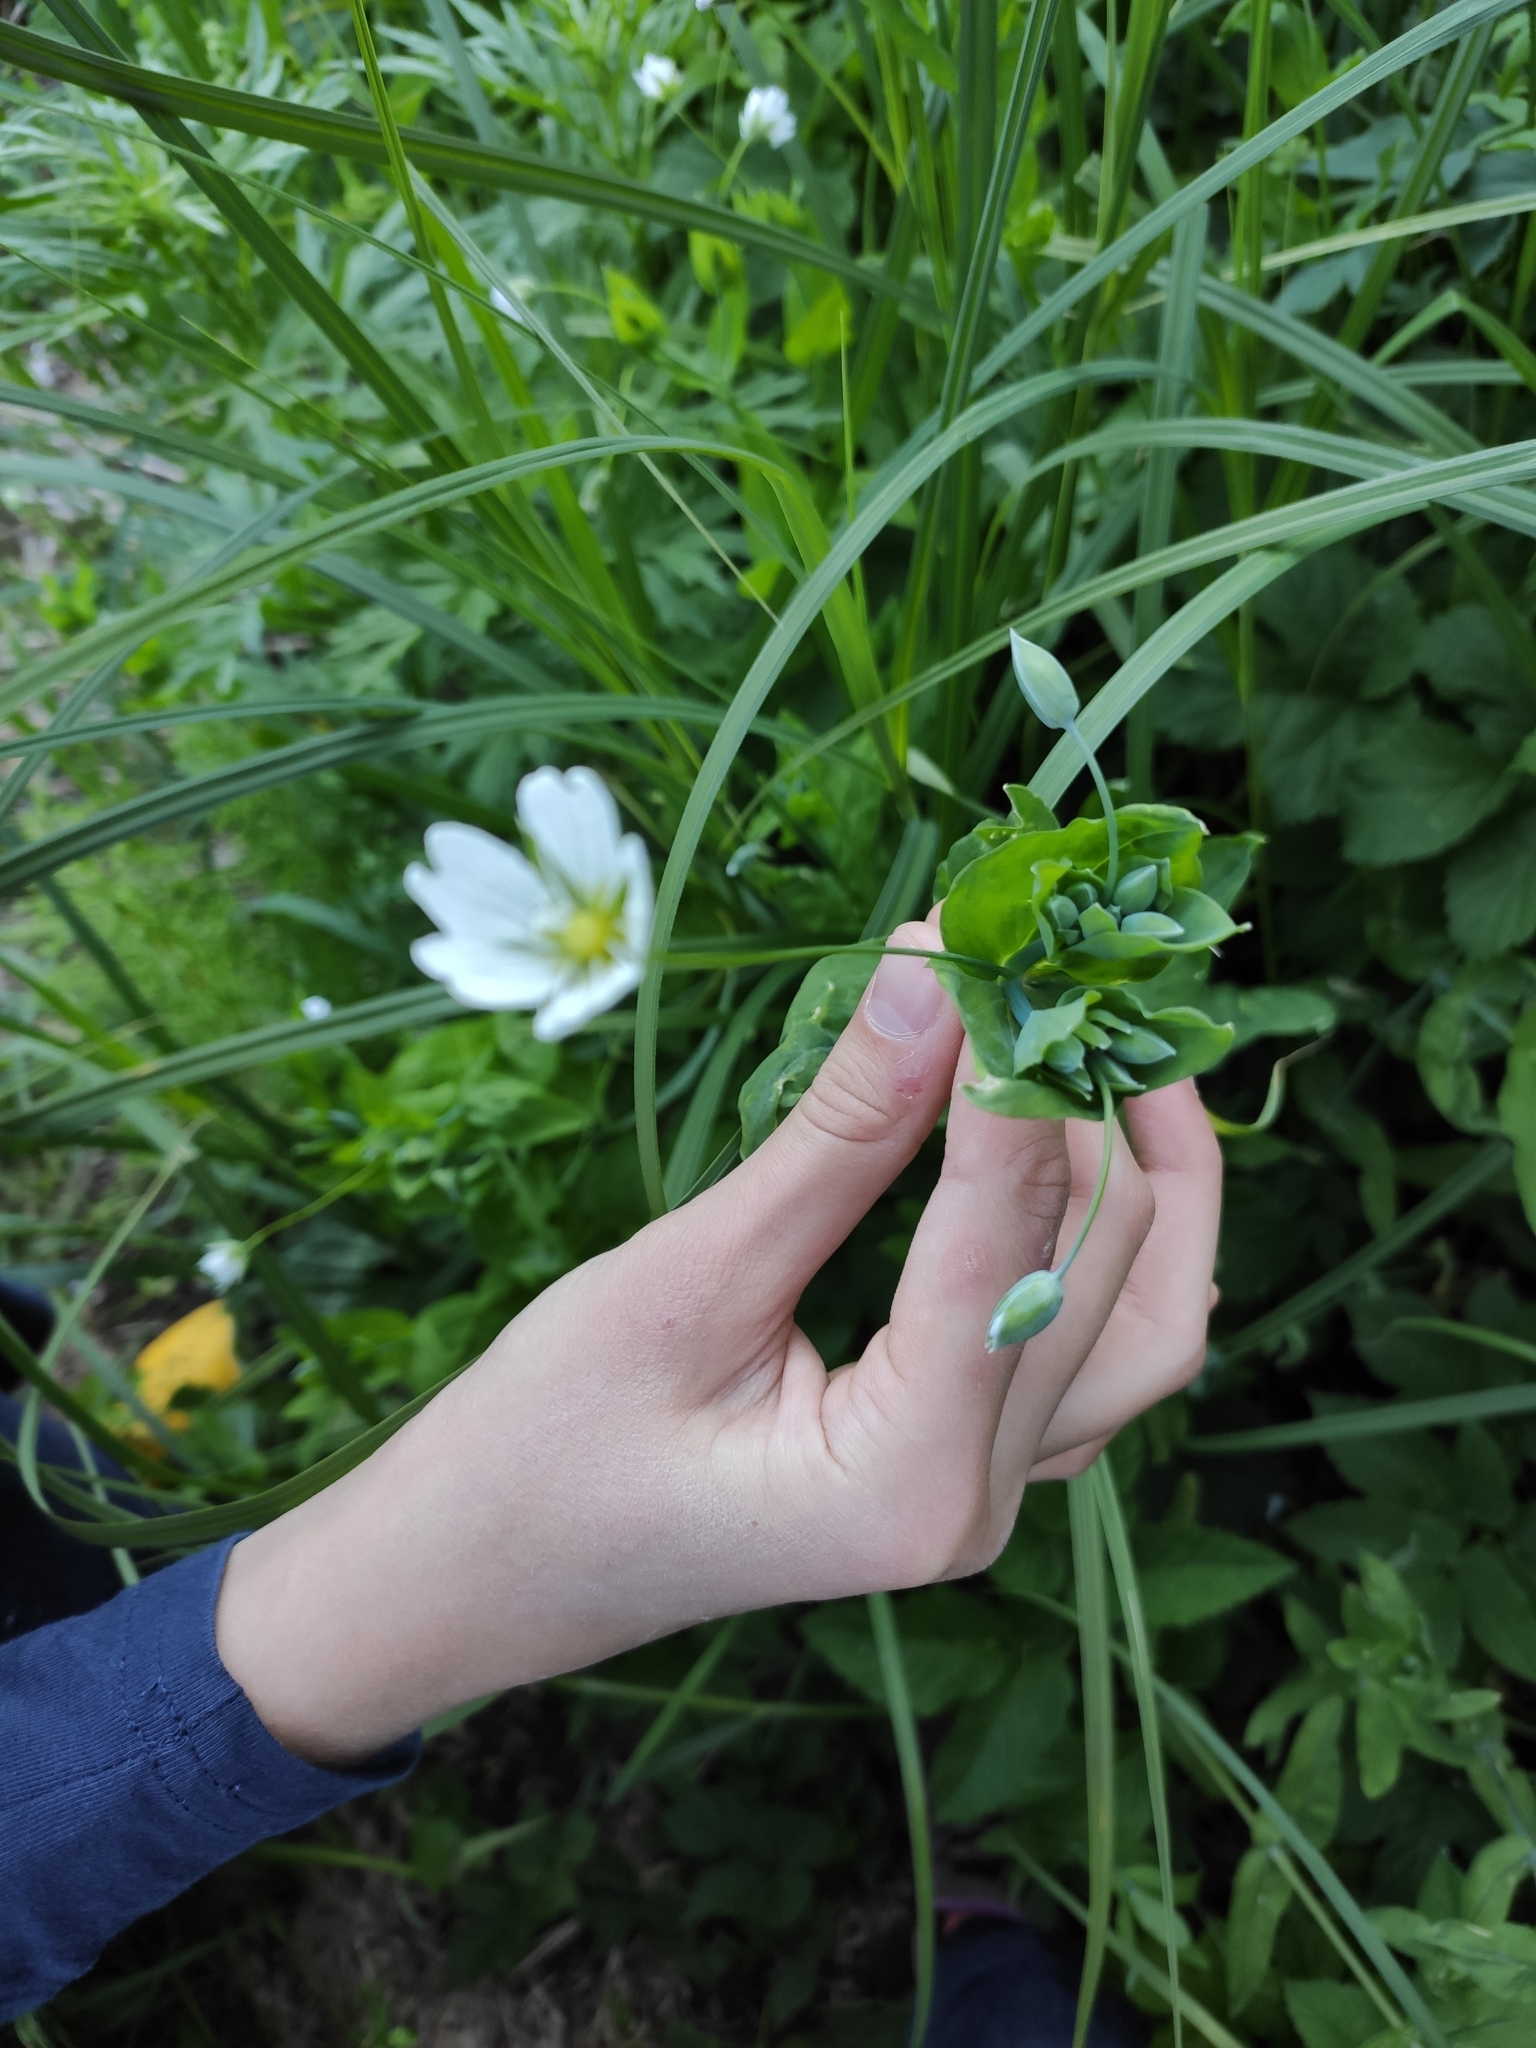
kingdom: Plantae
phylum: Tracheophyta
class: Magnoliopsida
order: Caryophyllales
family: Caryophyllaceae
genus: Cerastium
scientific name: Cerastium davuricum
